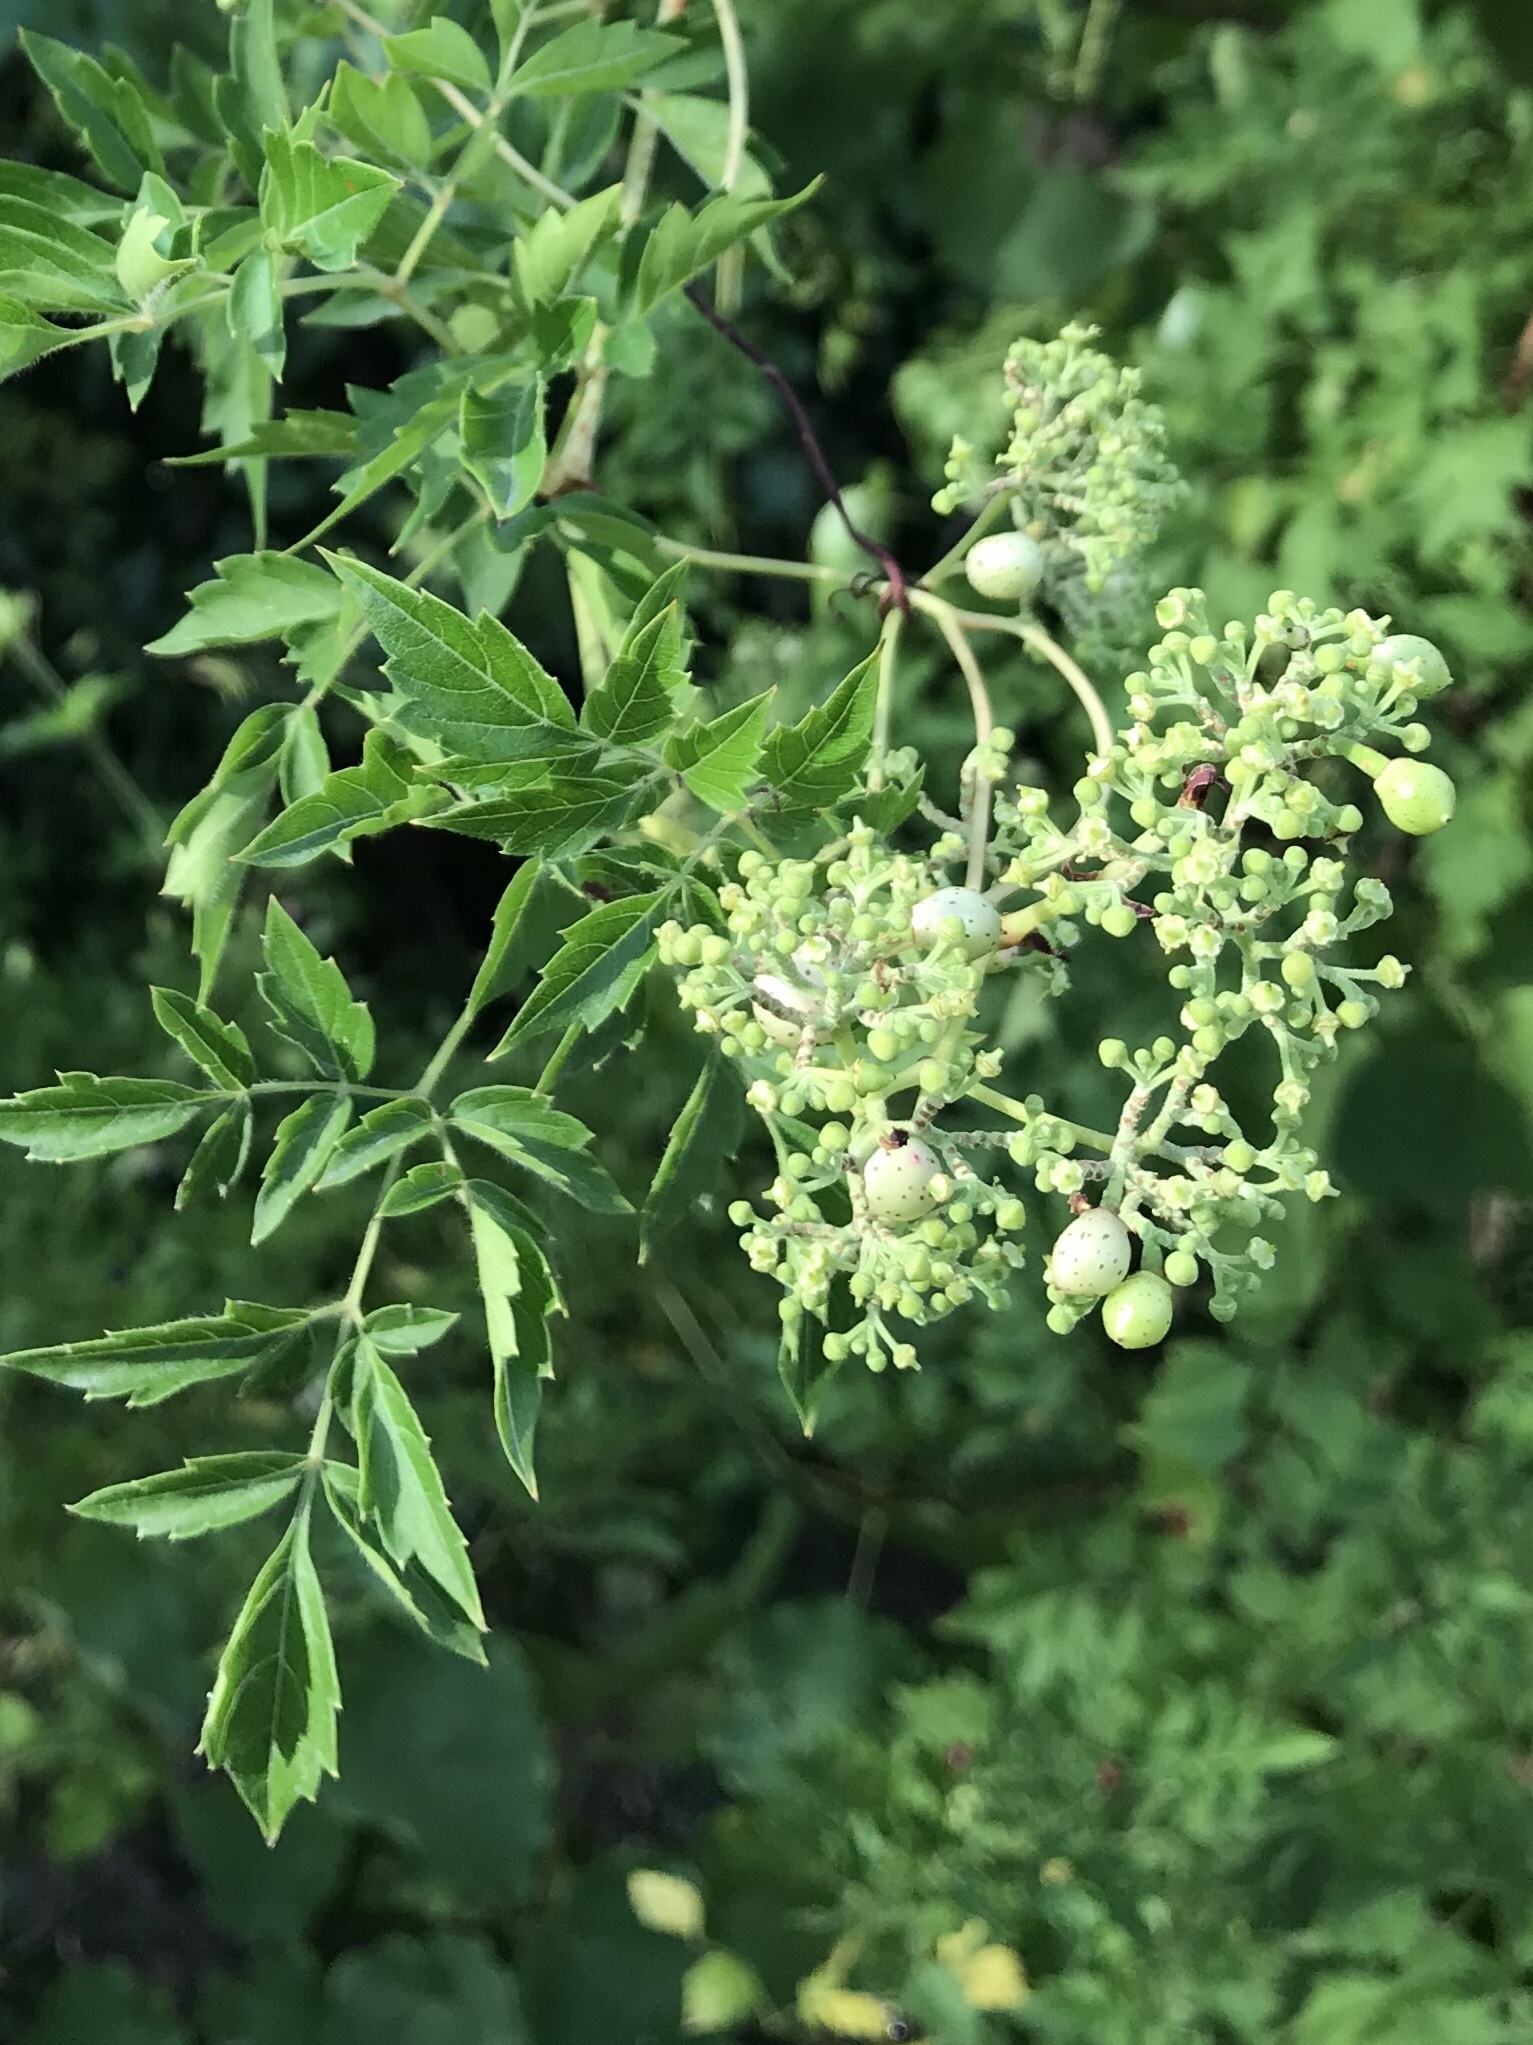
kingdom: Plantae
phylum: Tracheophyta
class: Magnoliopsida
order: Vitales
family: Vitaceae
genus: Nekemias
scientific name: Nekemias arborea
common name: Peppervine
